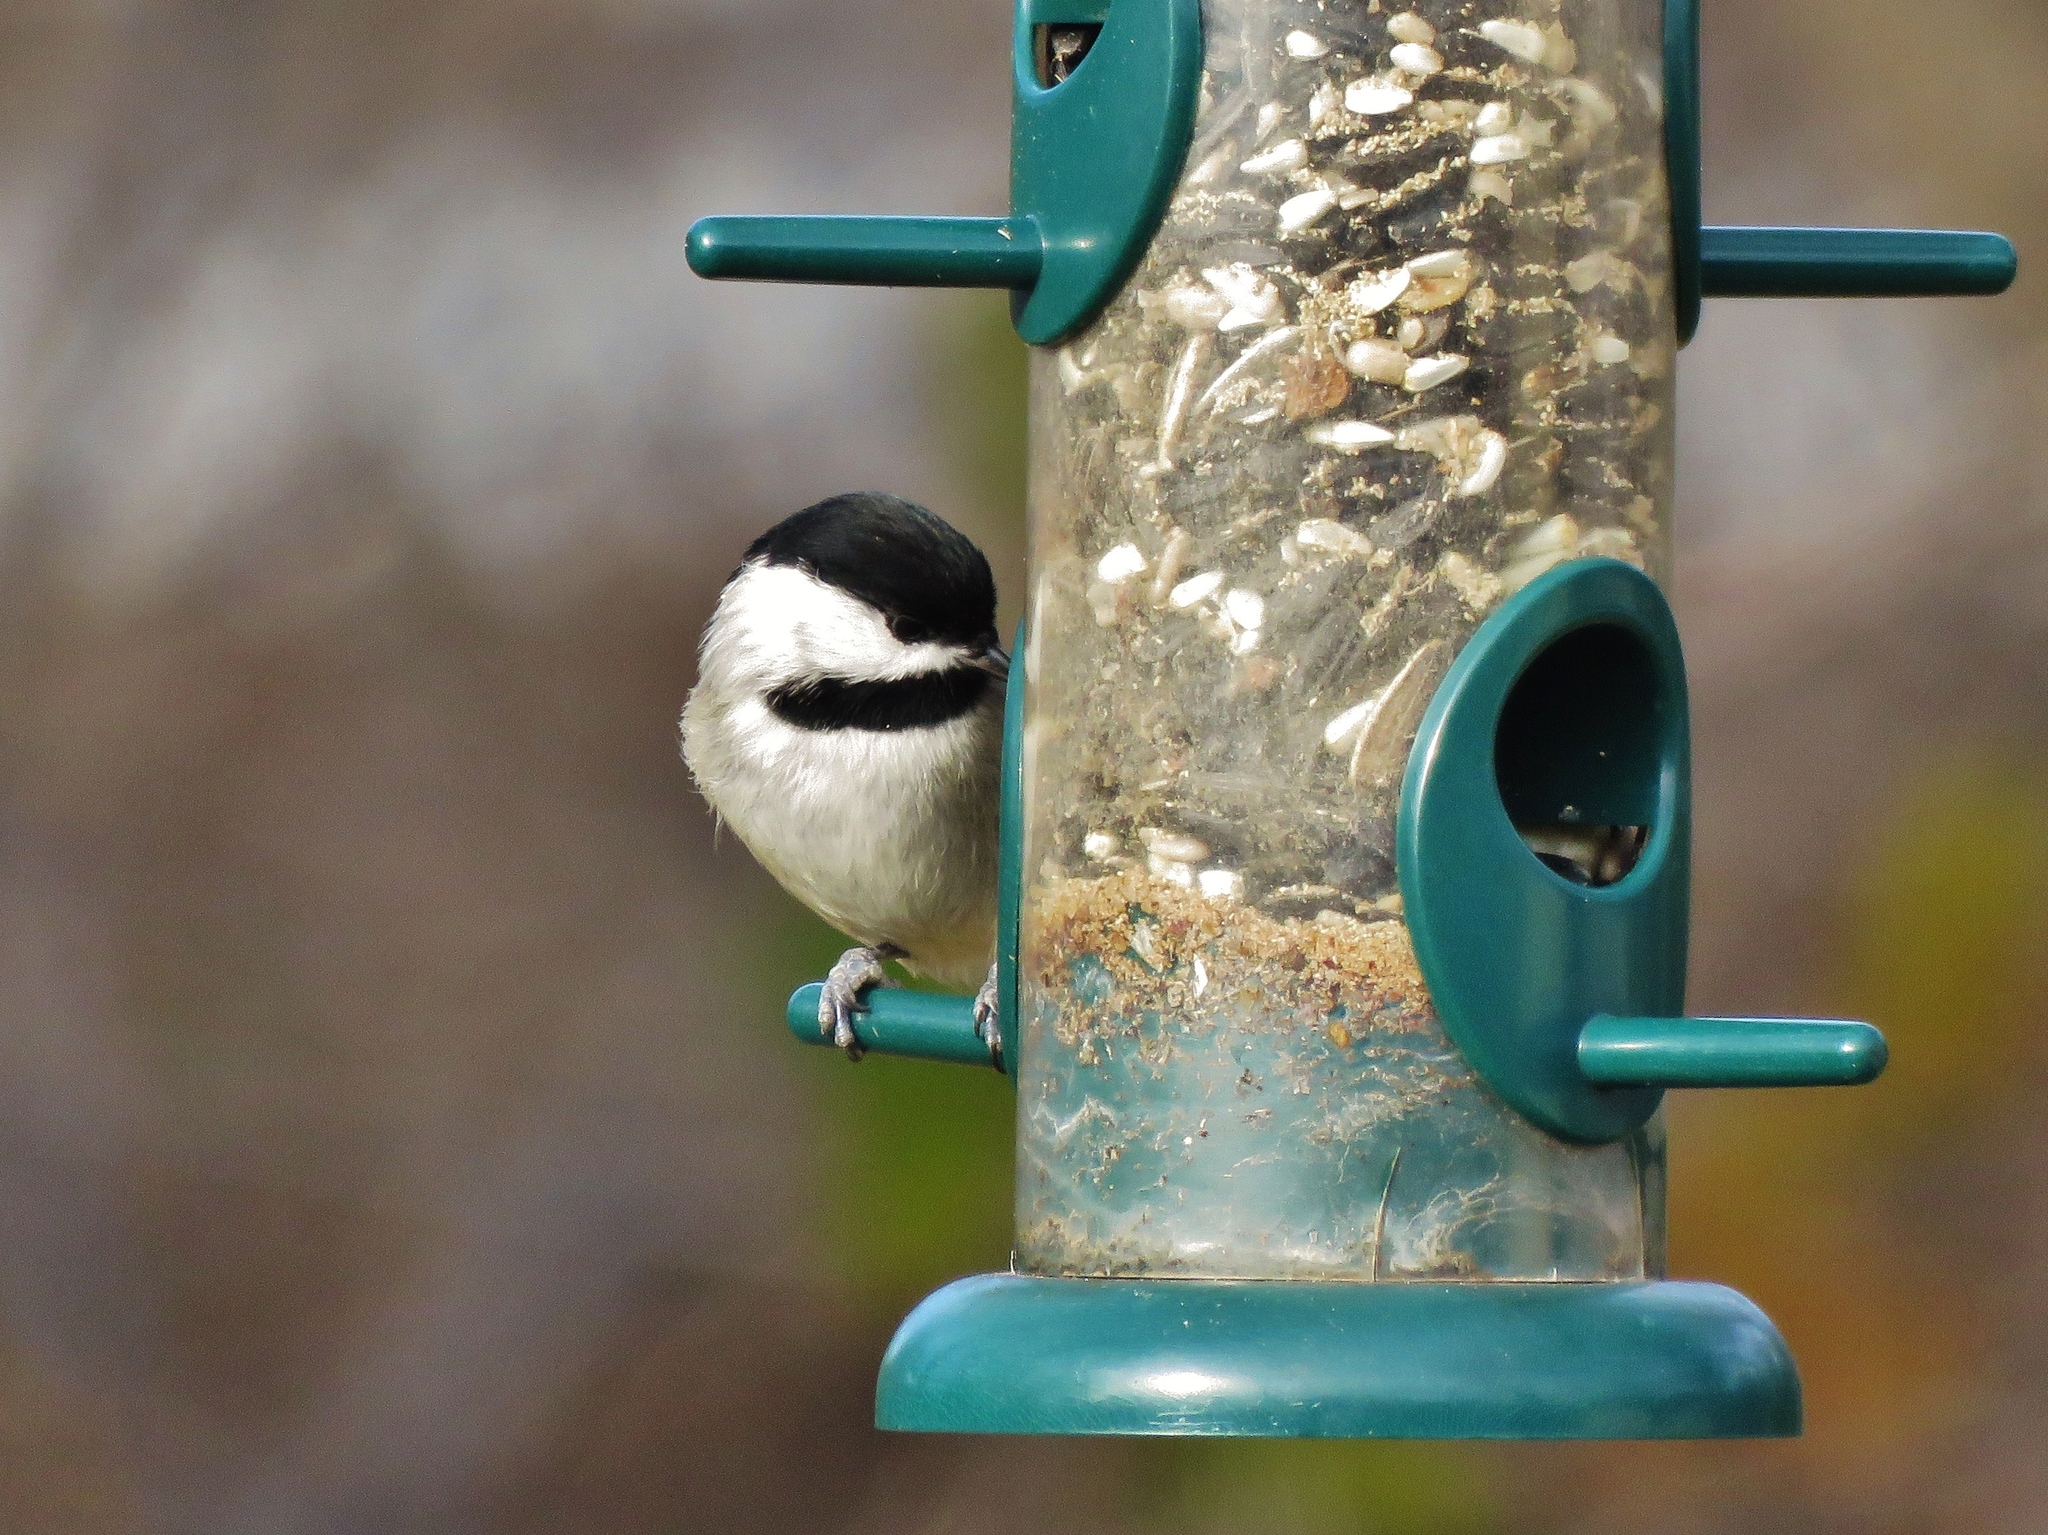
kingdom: Animalia
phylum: Chordata
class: Aves
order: Passeriformes
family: Paridae
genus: Poecile
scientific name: Poecile carolinensis
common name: Carolina chickadee
